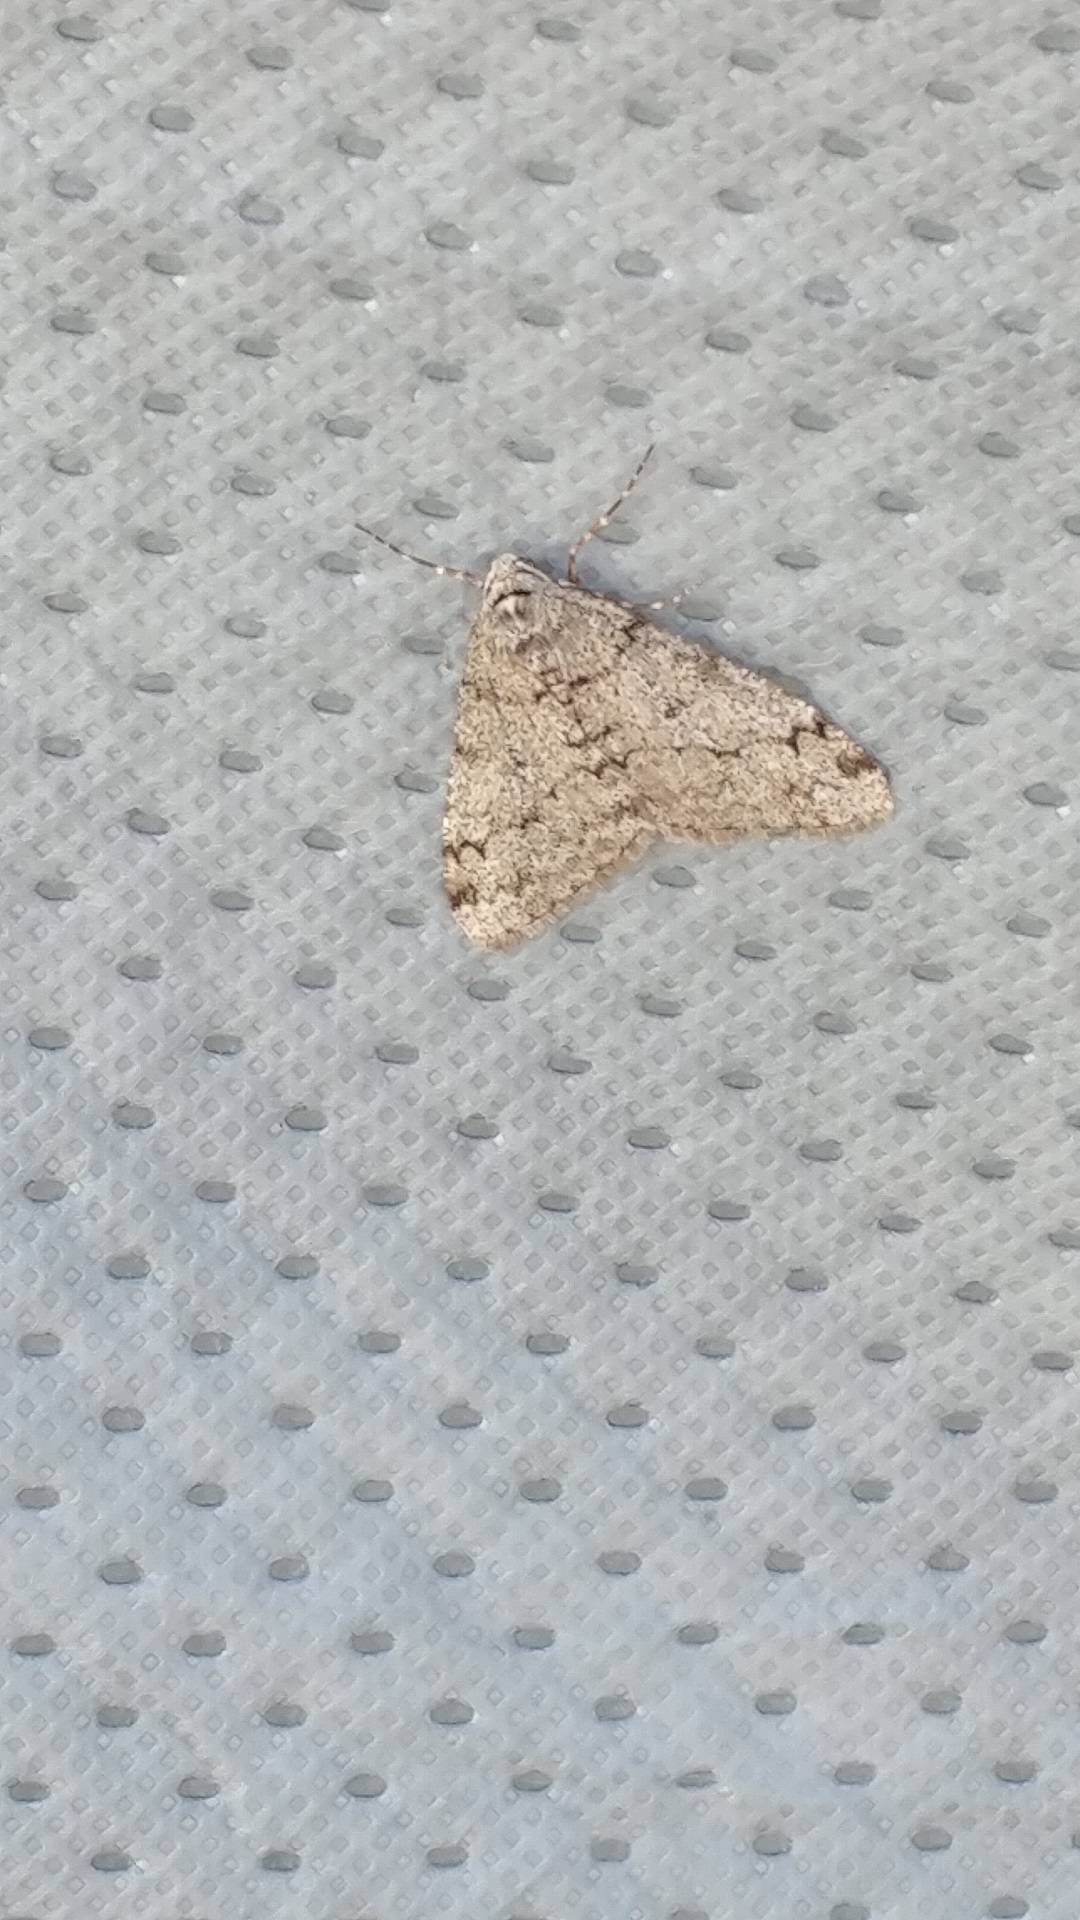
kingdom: Animalia
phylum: Arthropoda
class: Insecta
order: Lepidoptera
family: Geometridae
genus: Phigalia
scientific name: Phigalia strigataria
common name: Small phigalia
